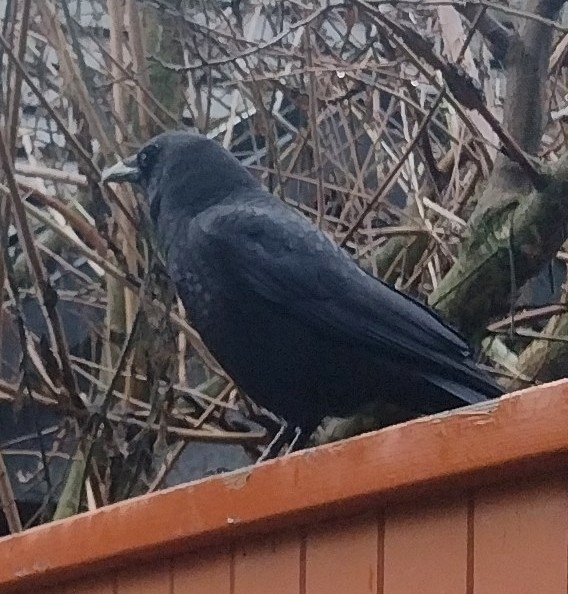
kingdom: Animalia
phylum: Chordata
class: Aves
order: Passeriformes
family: Corvidae
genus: Corvus
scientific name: Corvus brachyrhynchos
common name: American crow
